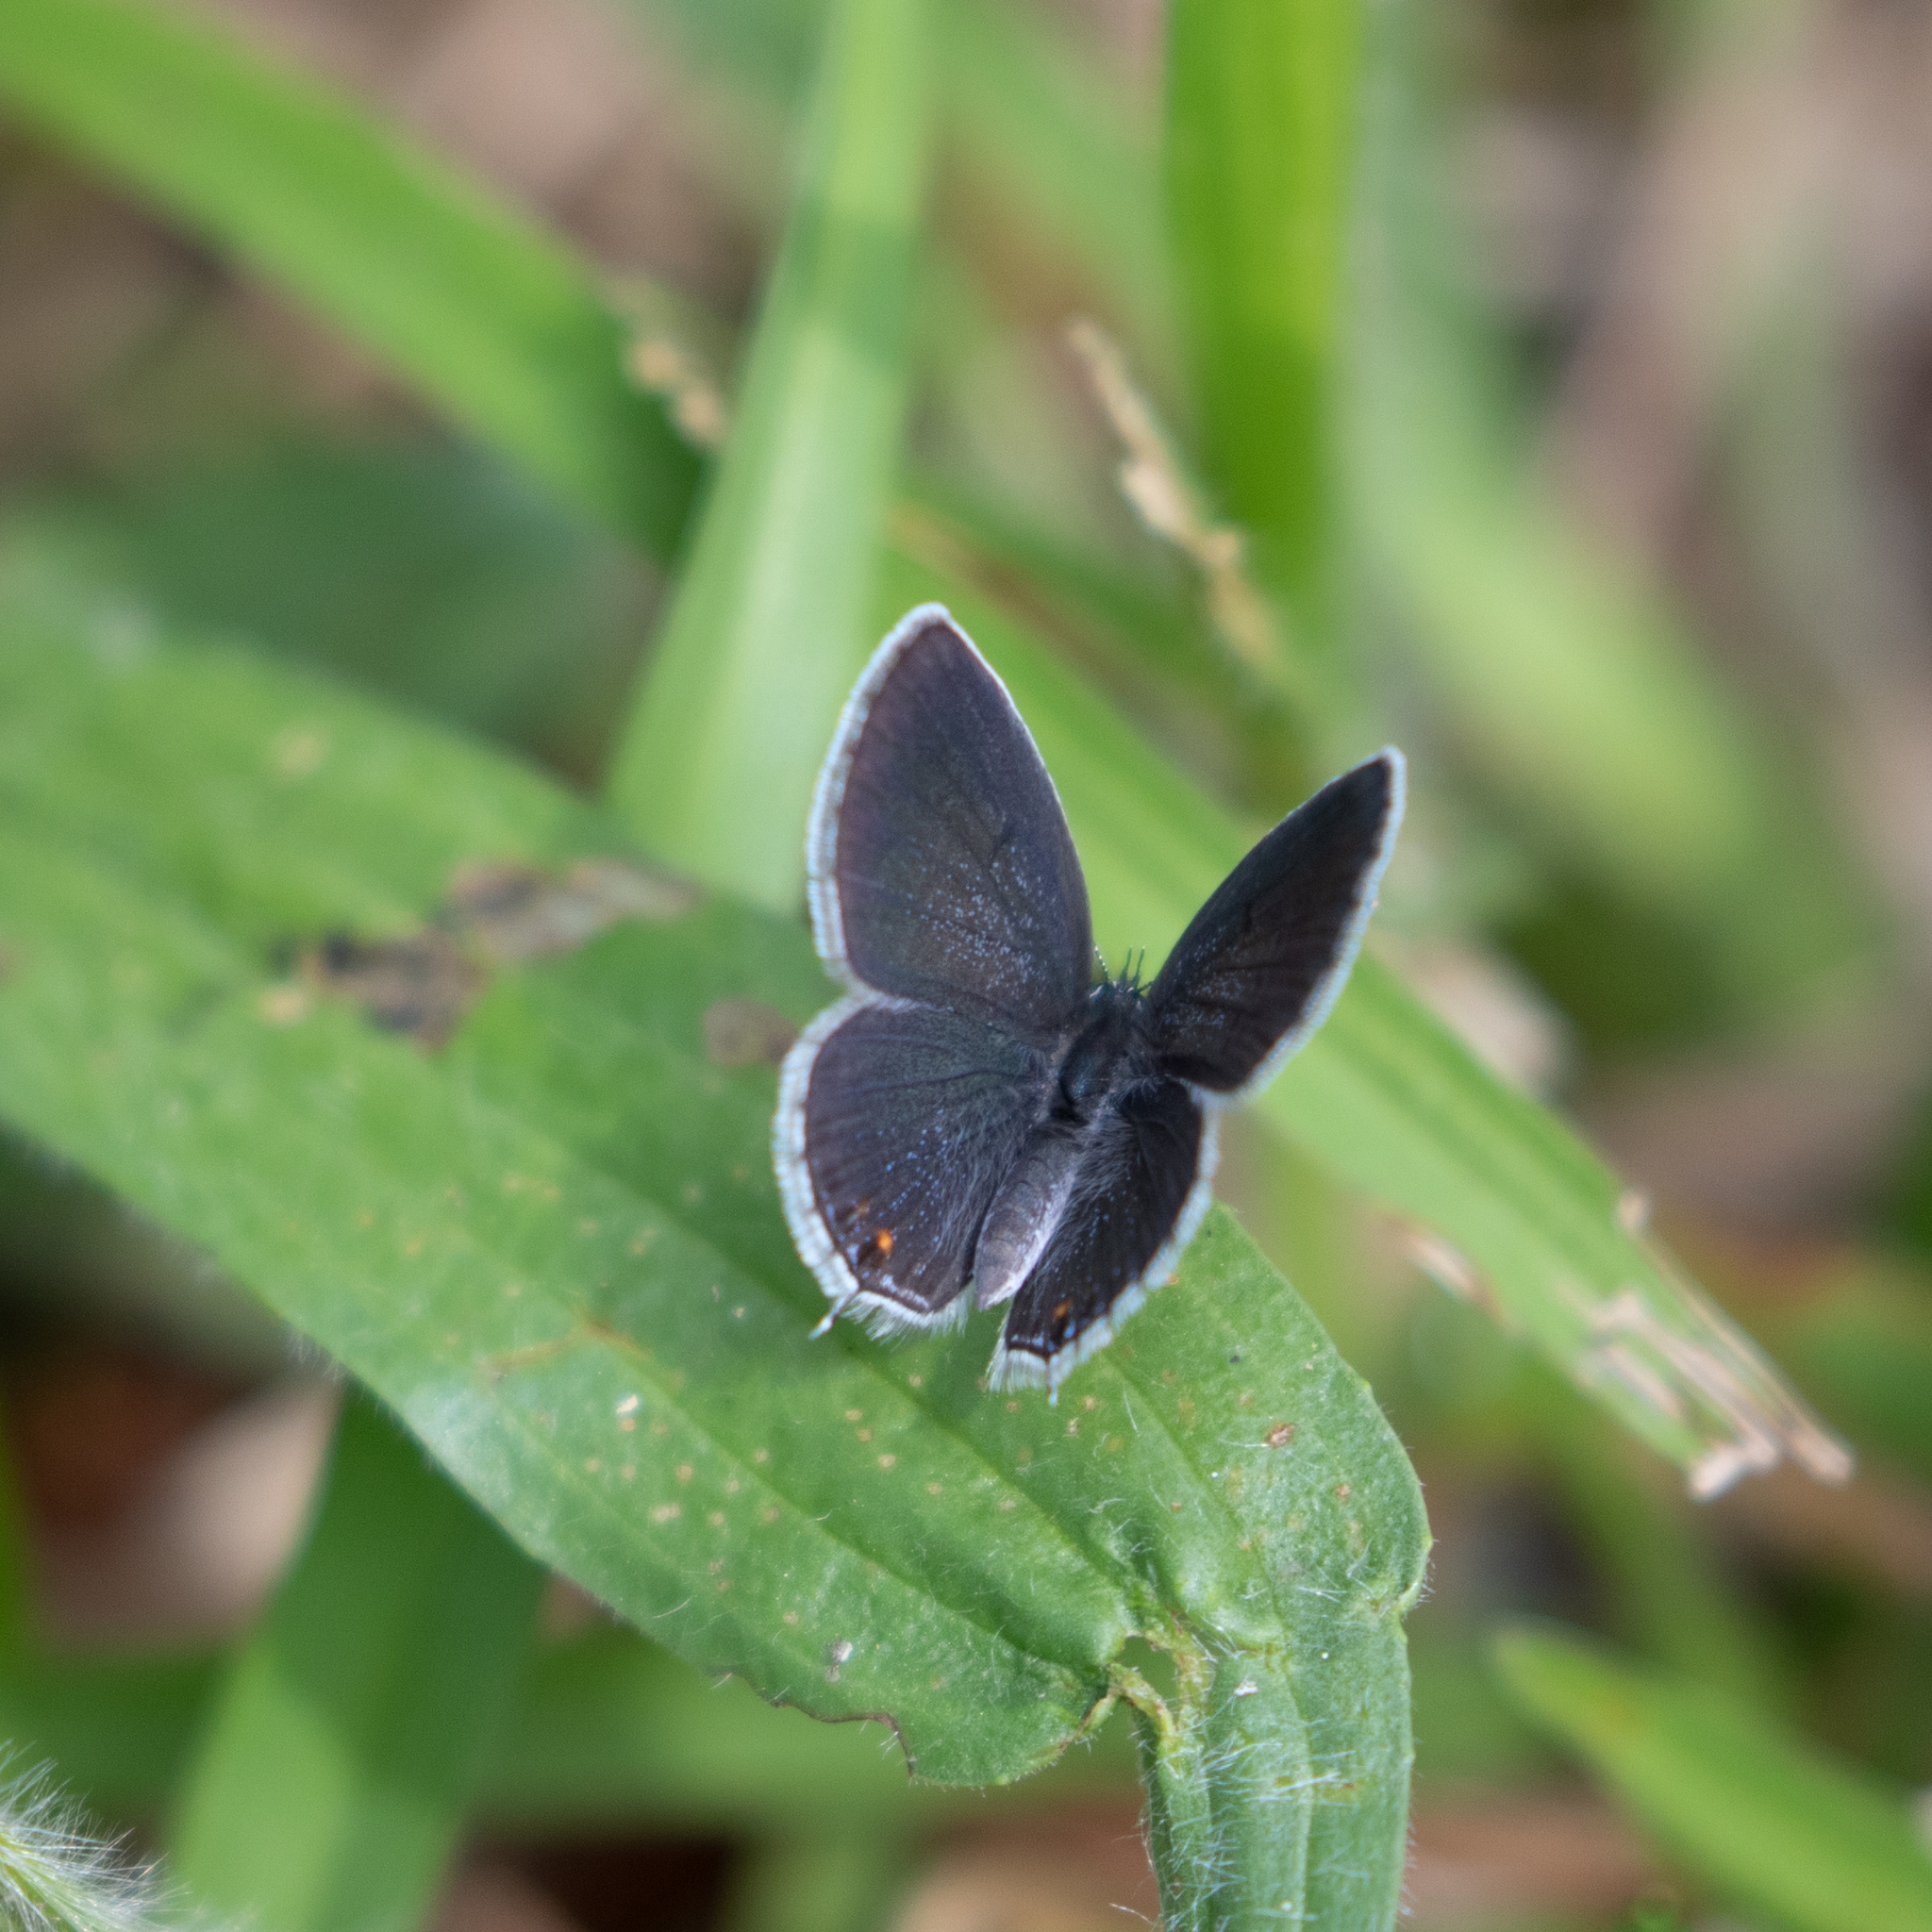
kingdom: Animalia
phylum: Arthropoda
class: Insecta
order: Lepidoptera
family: Lycaenidae
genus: Elkalyce
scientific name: Elkalyce comyntas
